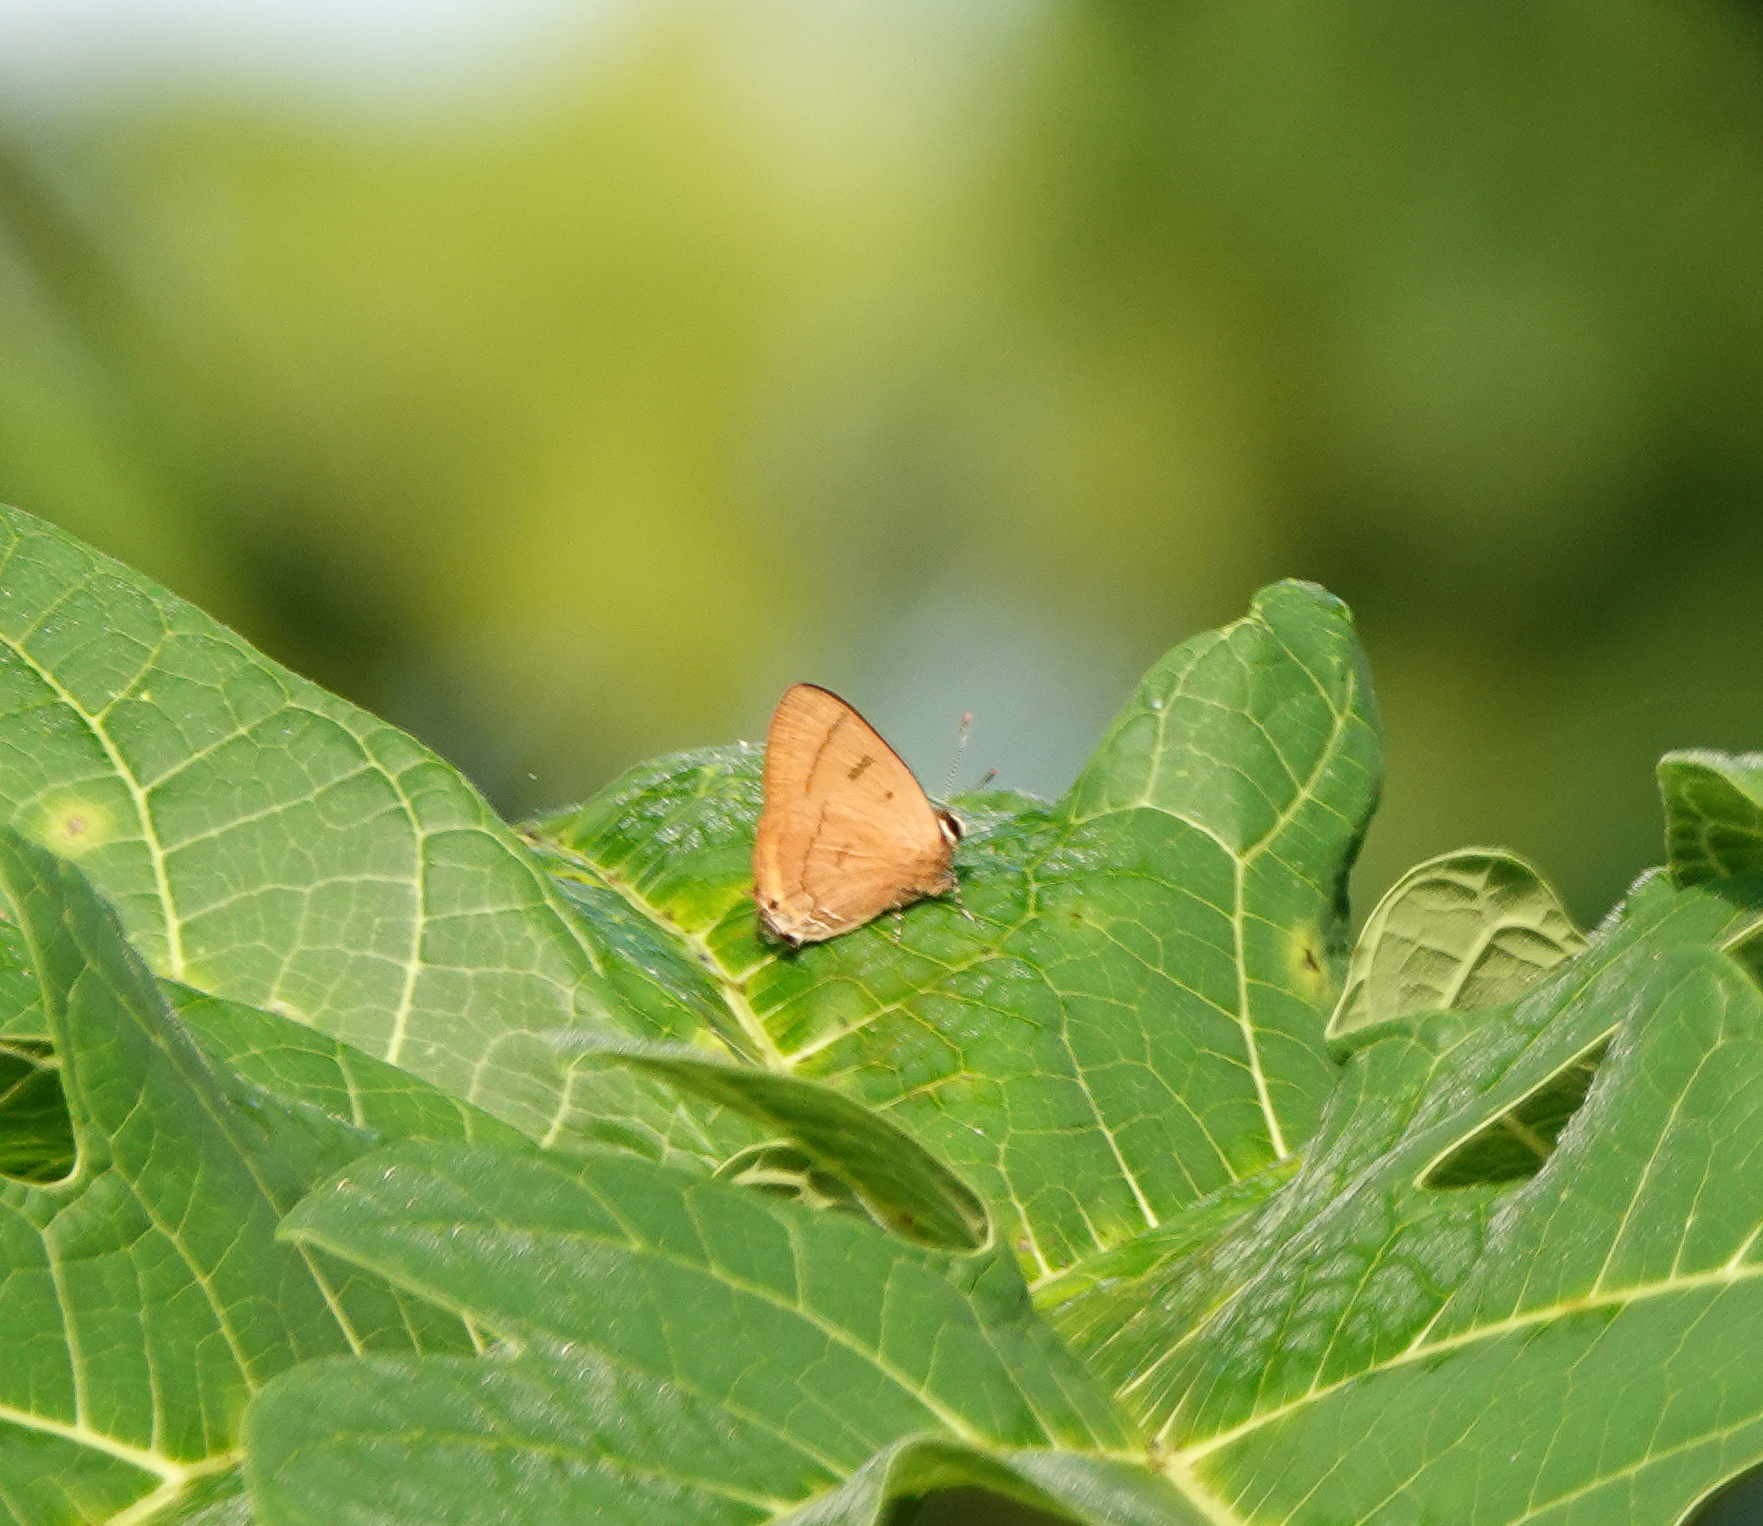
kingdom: Animalia
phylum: Arthropoda
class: Insecta
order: Lepidoptera
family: Lycaenidae
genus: Rapala
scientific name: Rapala pheretima
